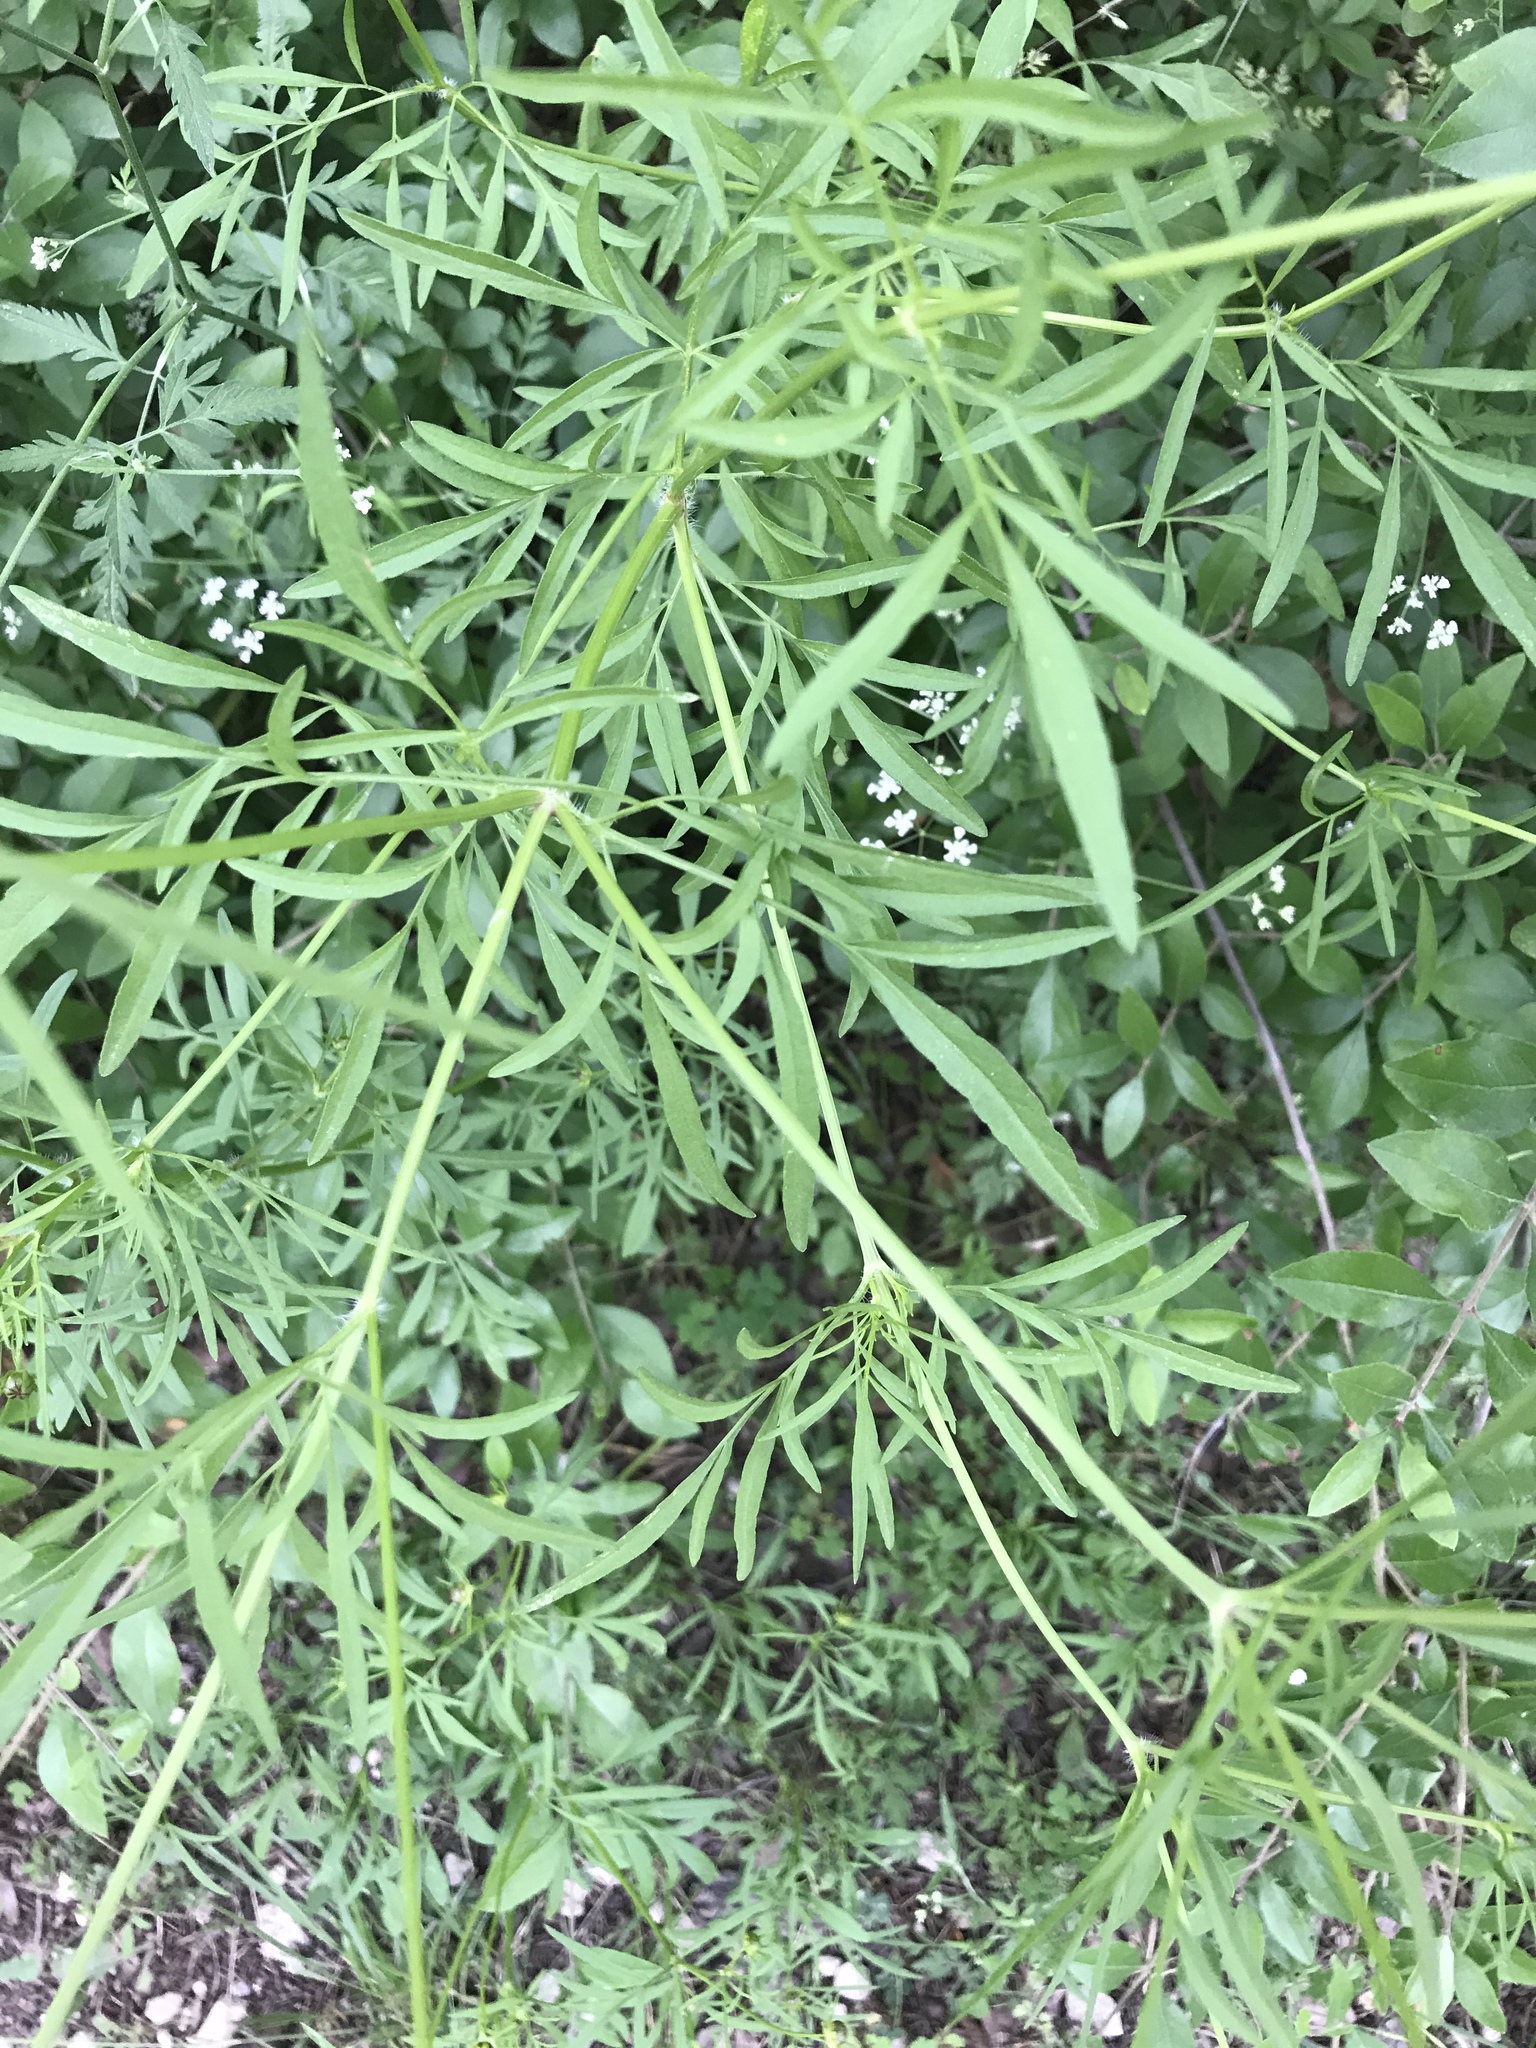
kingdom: Plantae
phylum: Tracheophyta
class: Magnoliopsida
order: Asterales
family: Asteraceae
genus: Coreopsis
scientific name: Coreopsis basalis
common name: Golden-mane coreopsis
